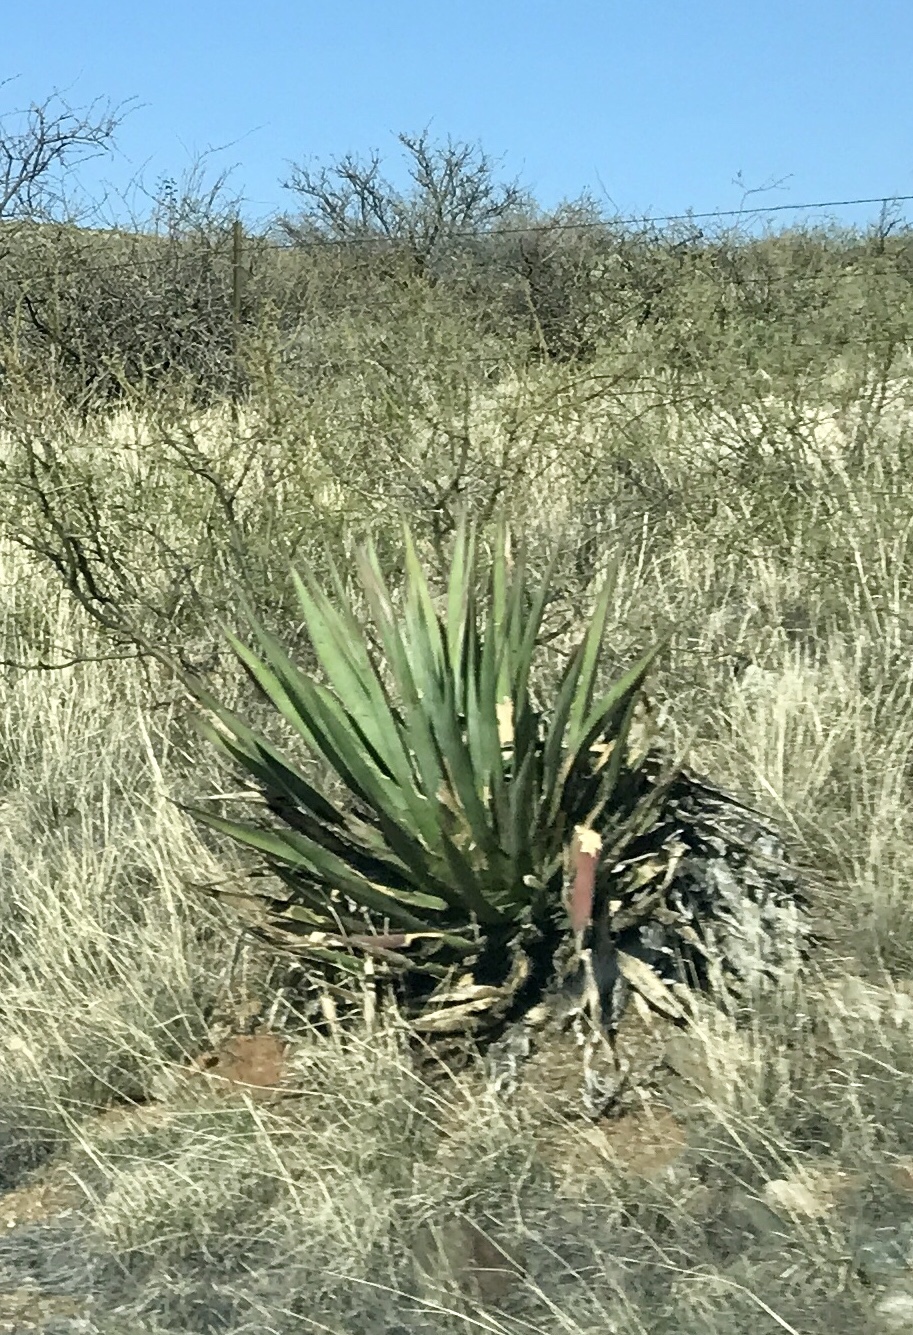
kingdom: Plantae
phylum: Tracheophyta
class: Liliopsida
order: Asparagales
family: Asparagaceae
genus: Agave
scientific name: Agave palmeri
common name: Palmer agave
